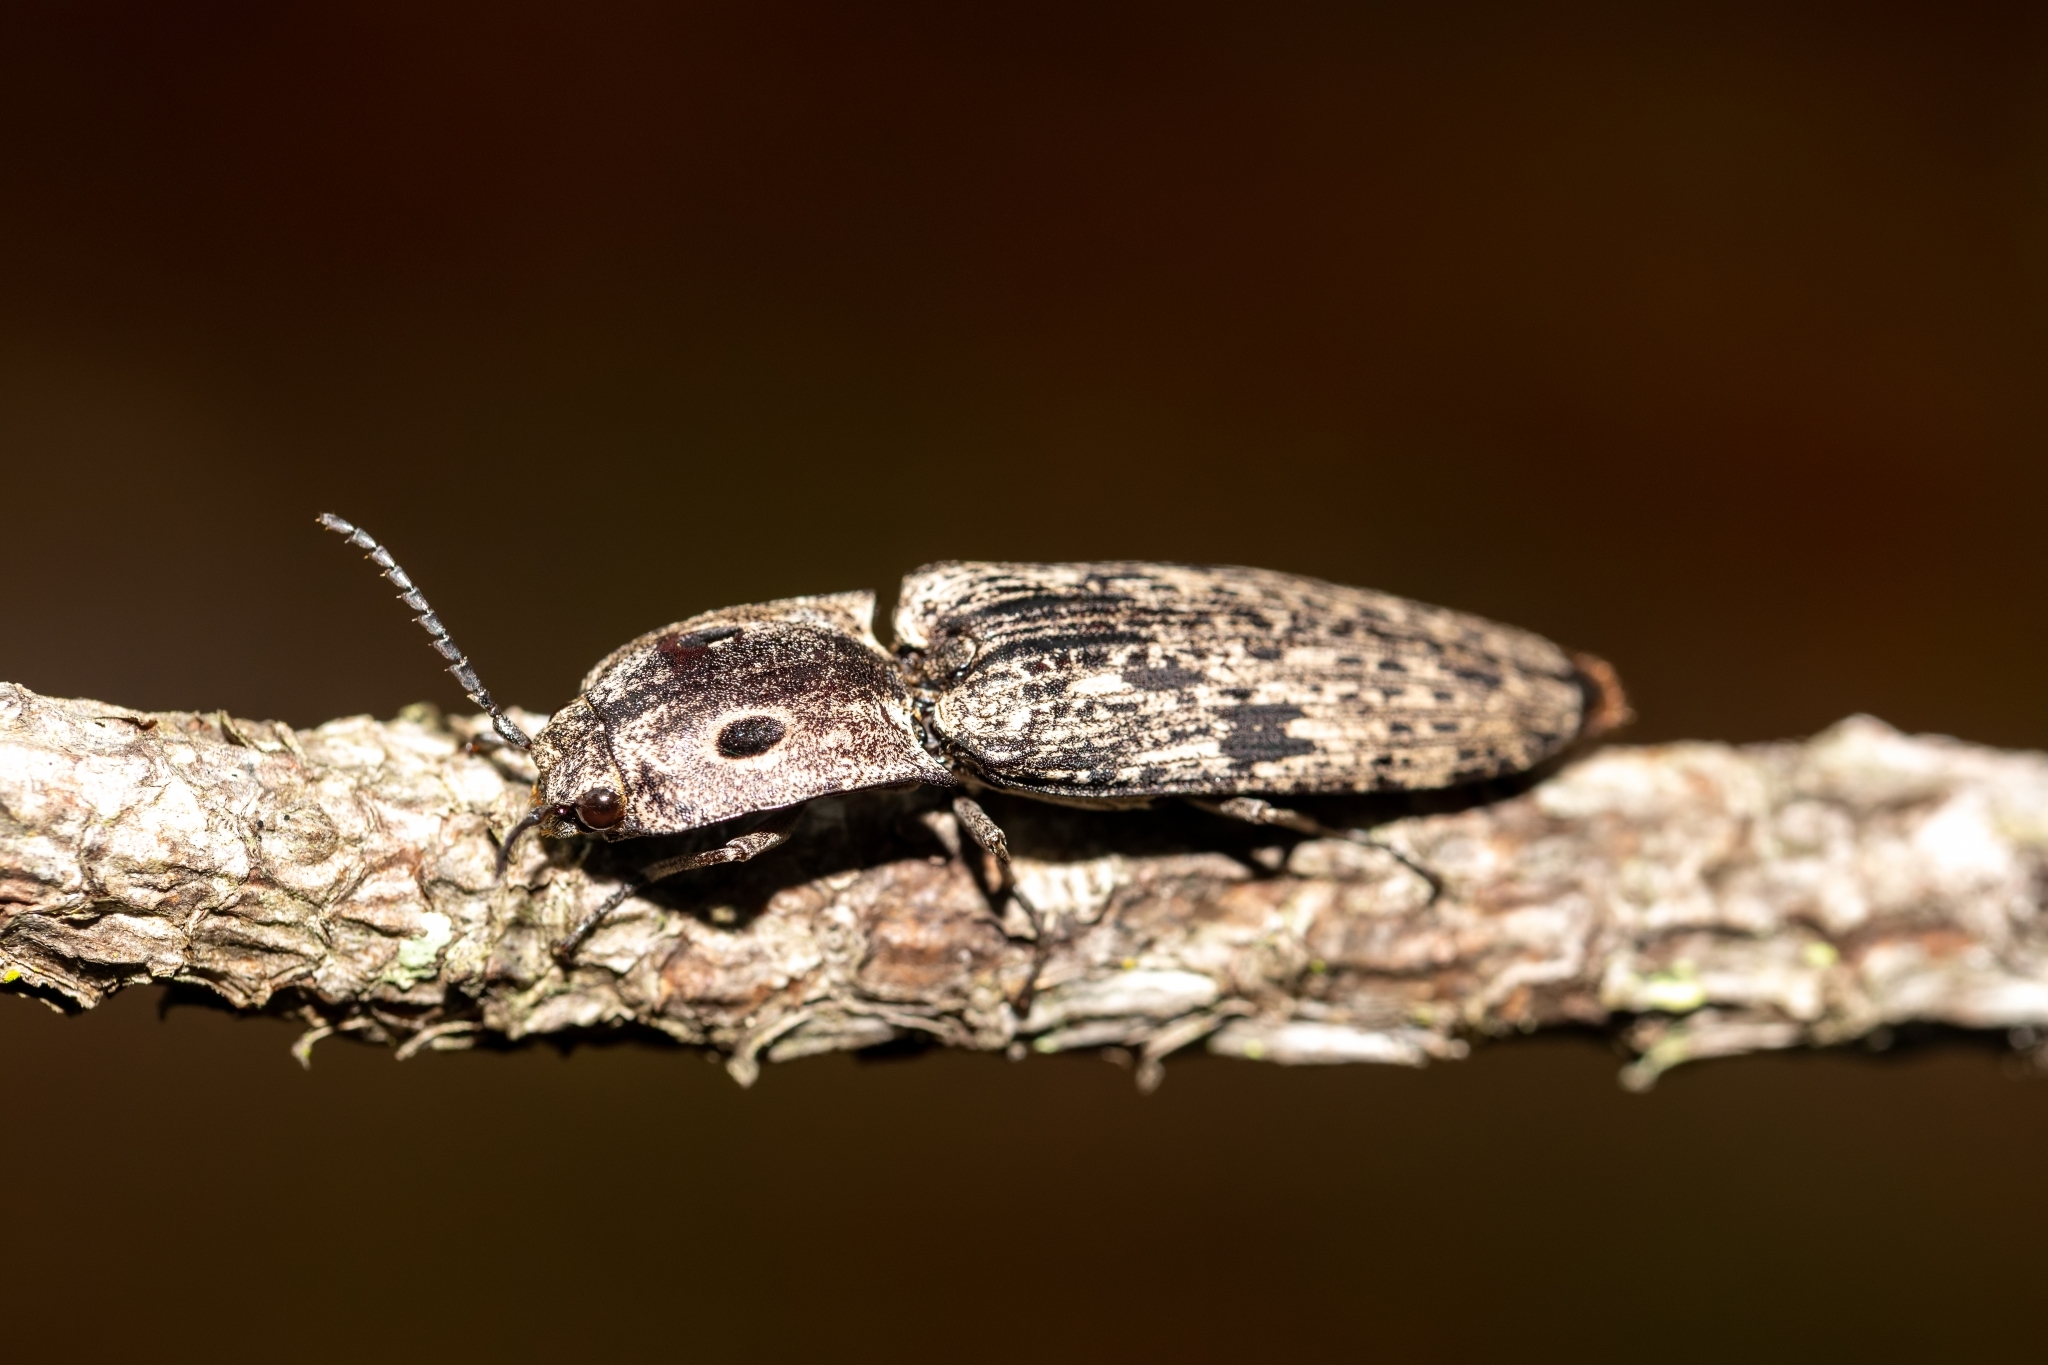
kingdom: Animalia
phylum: Arthropoda
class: Insecta
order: Coleoptera
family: Elateridae
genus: Alaus
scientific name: Alaus myops
